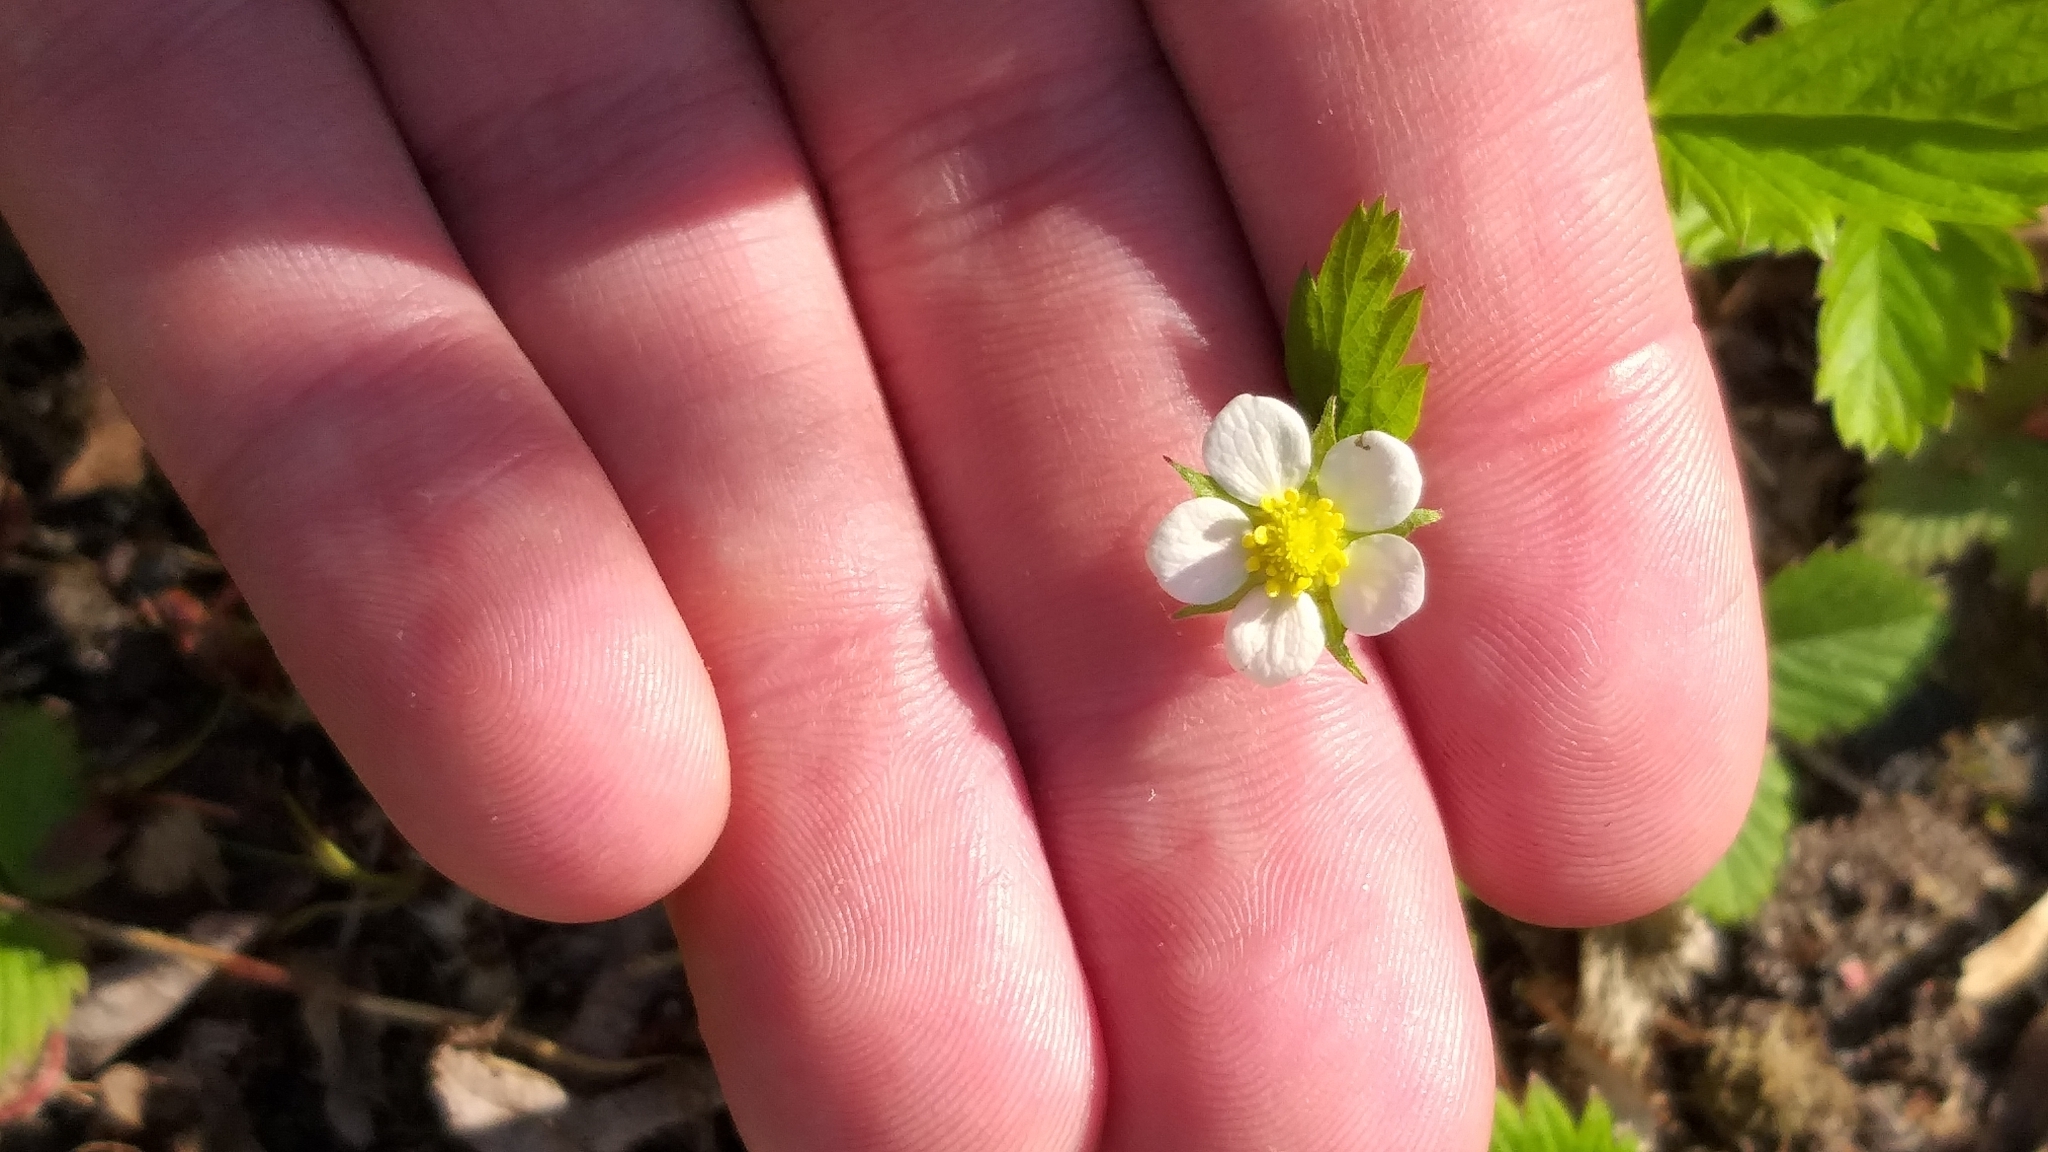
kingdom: Plantae
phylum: Tracheophyta
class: Magnoliopsida
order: Rosales
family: Rosaceae
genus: Fragaria
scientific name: Fragaria virginiana
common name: Thickleaved wild strawberry
